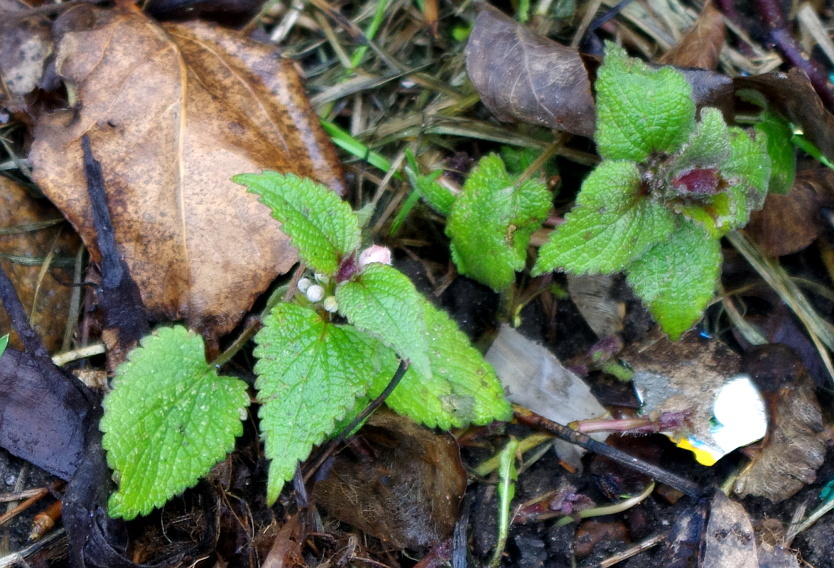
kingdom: Plantae
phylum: Tracheophyta
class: Magnoliopsida
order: Lamiales
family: Lamiaceae
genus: Lamium
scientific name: Lamium album
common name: White dead-nettle
